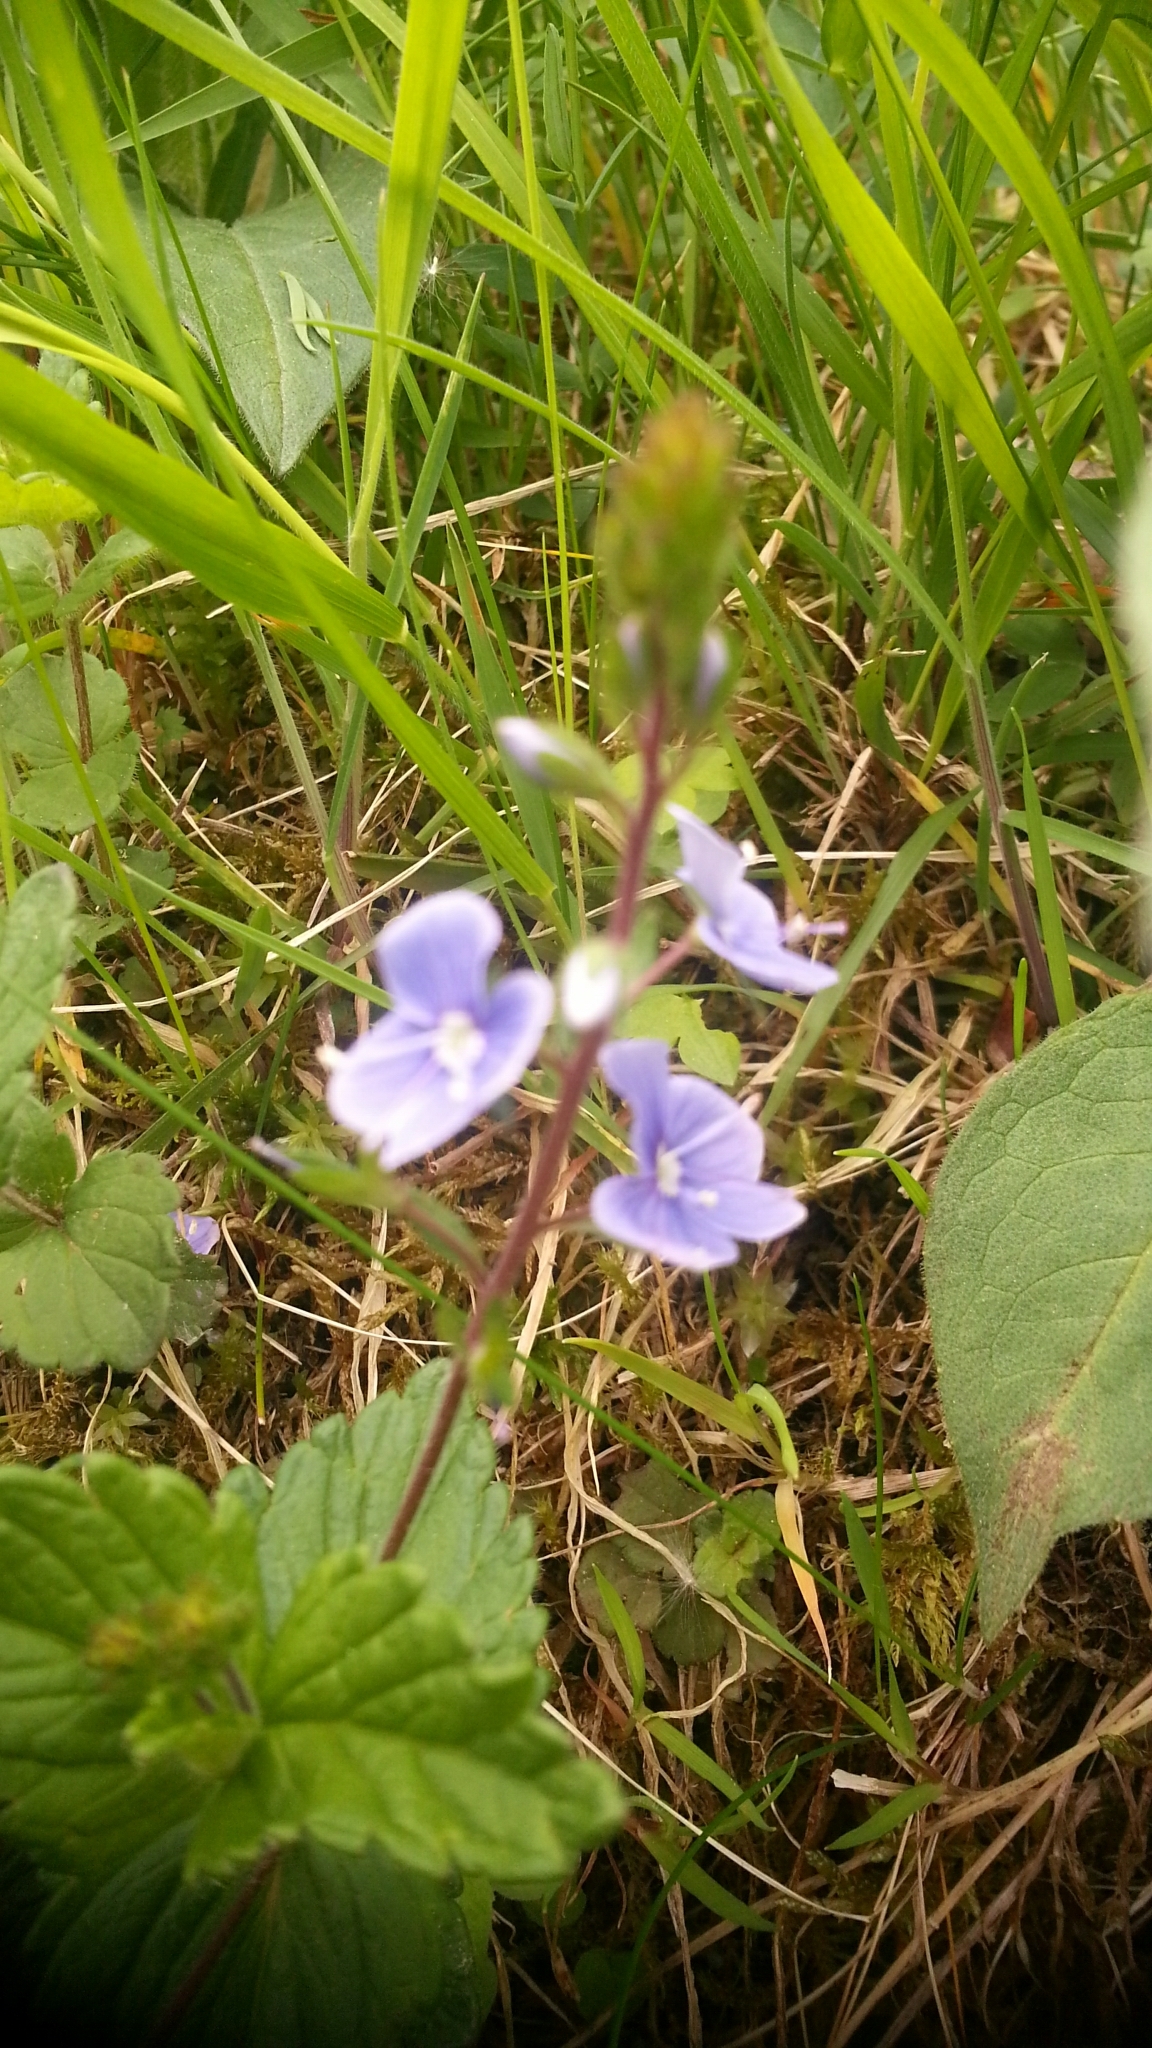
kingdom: Plantae
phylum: Tracheophyta
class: Magnoliopsida
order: Lamiales
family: Plantaginaceae
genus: Veronica
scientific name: Veronica chamaedrys
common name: Germander speedwell
